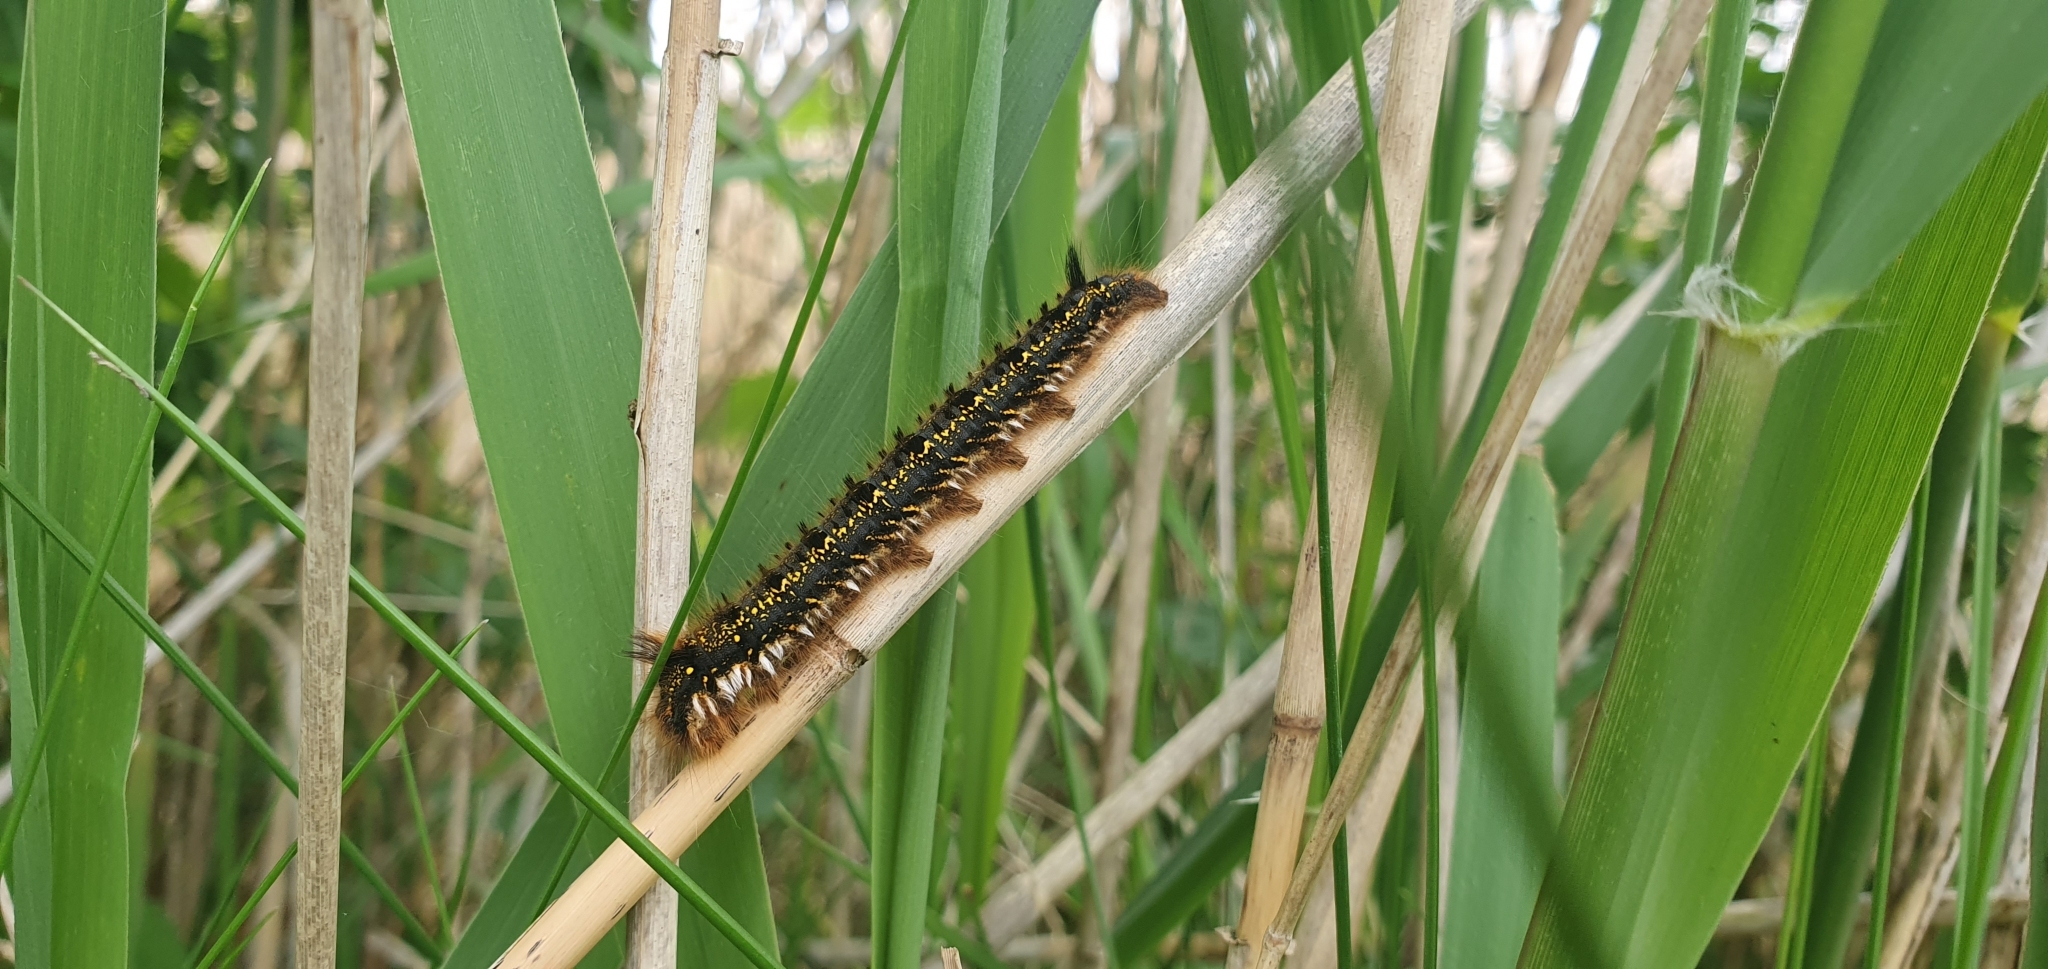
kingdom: Animalia
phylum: Arthropoda
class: Insecta
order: Lepidoptera
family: Lasiocampidae
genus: Euthrix
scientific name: Euthrix potatoria
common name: Drinker
